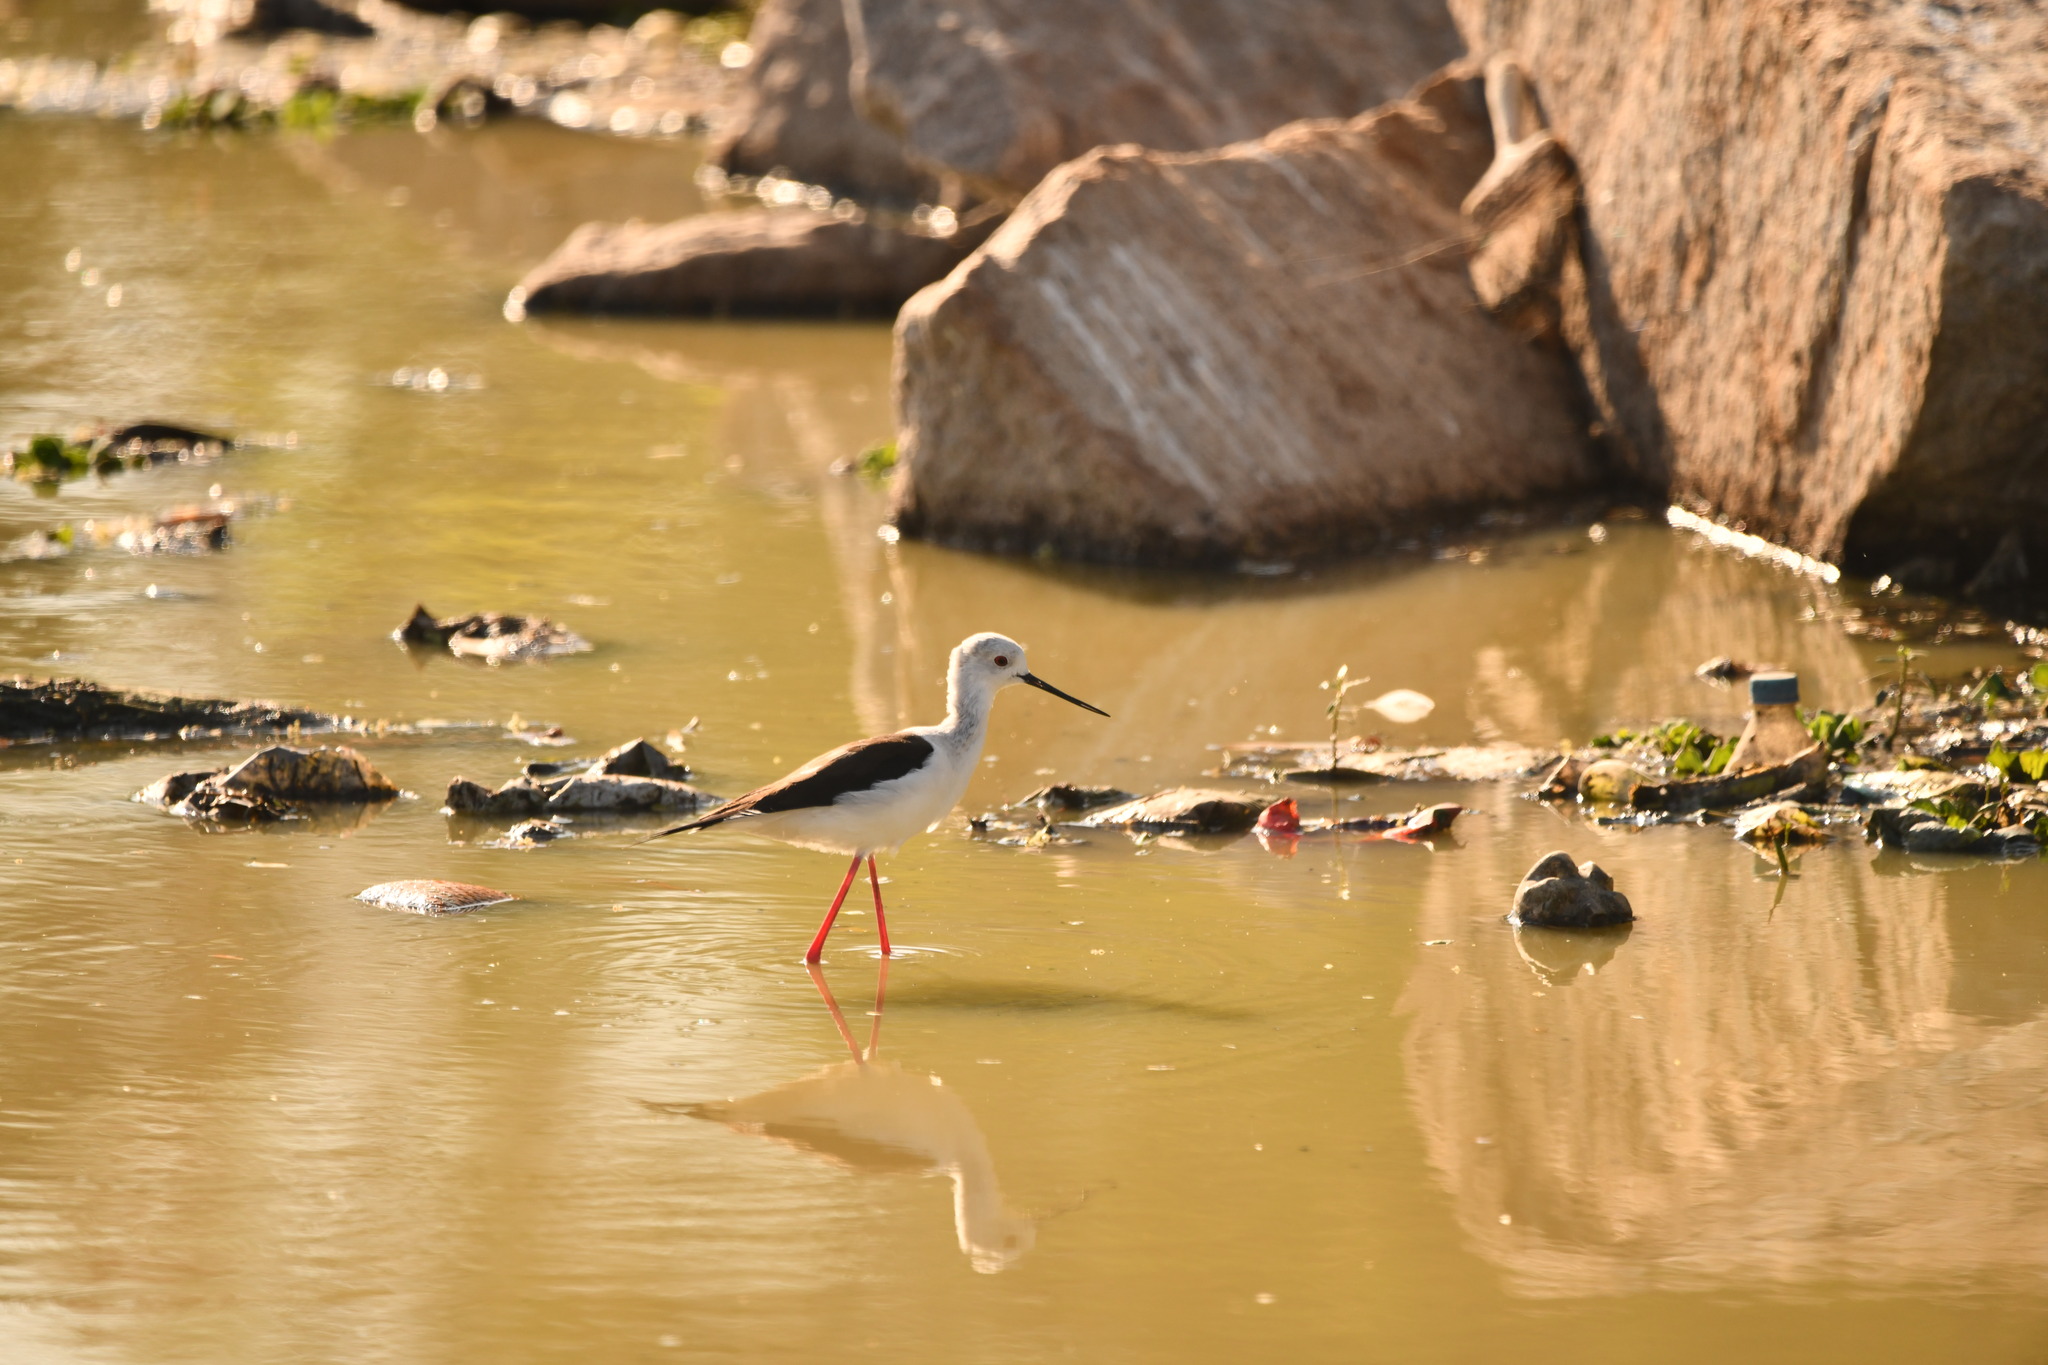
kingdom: Animalia
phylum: Chordata
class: Aves
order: Charadriiformes
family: Recurvirostridae
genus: Himantopus
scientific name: Himantopus himantopus
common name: Black-winged stilt
